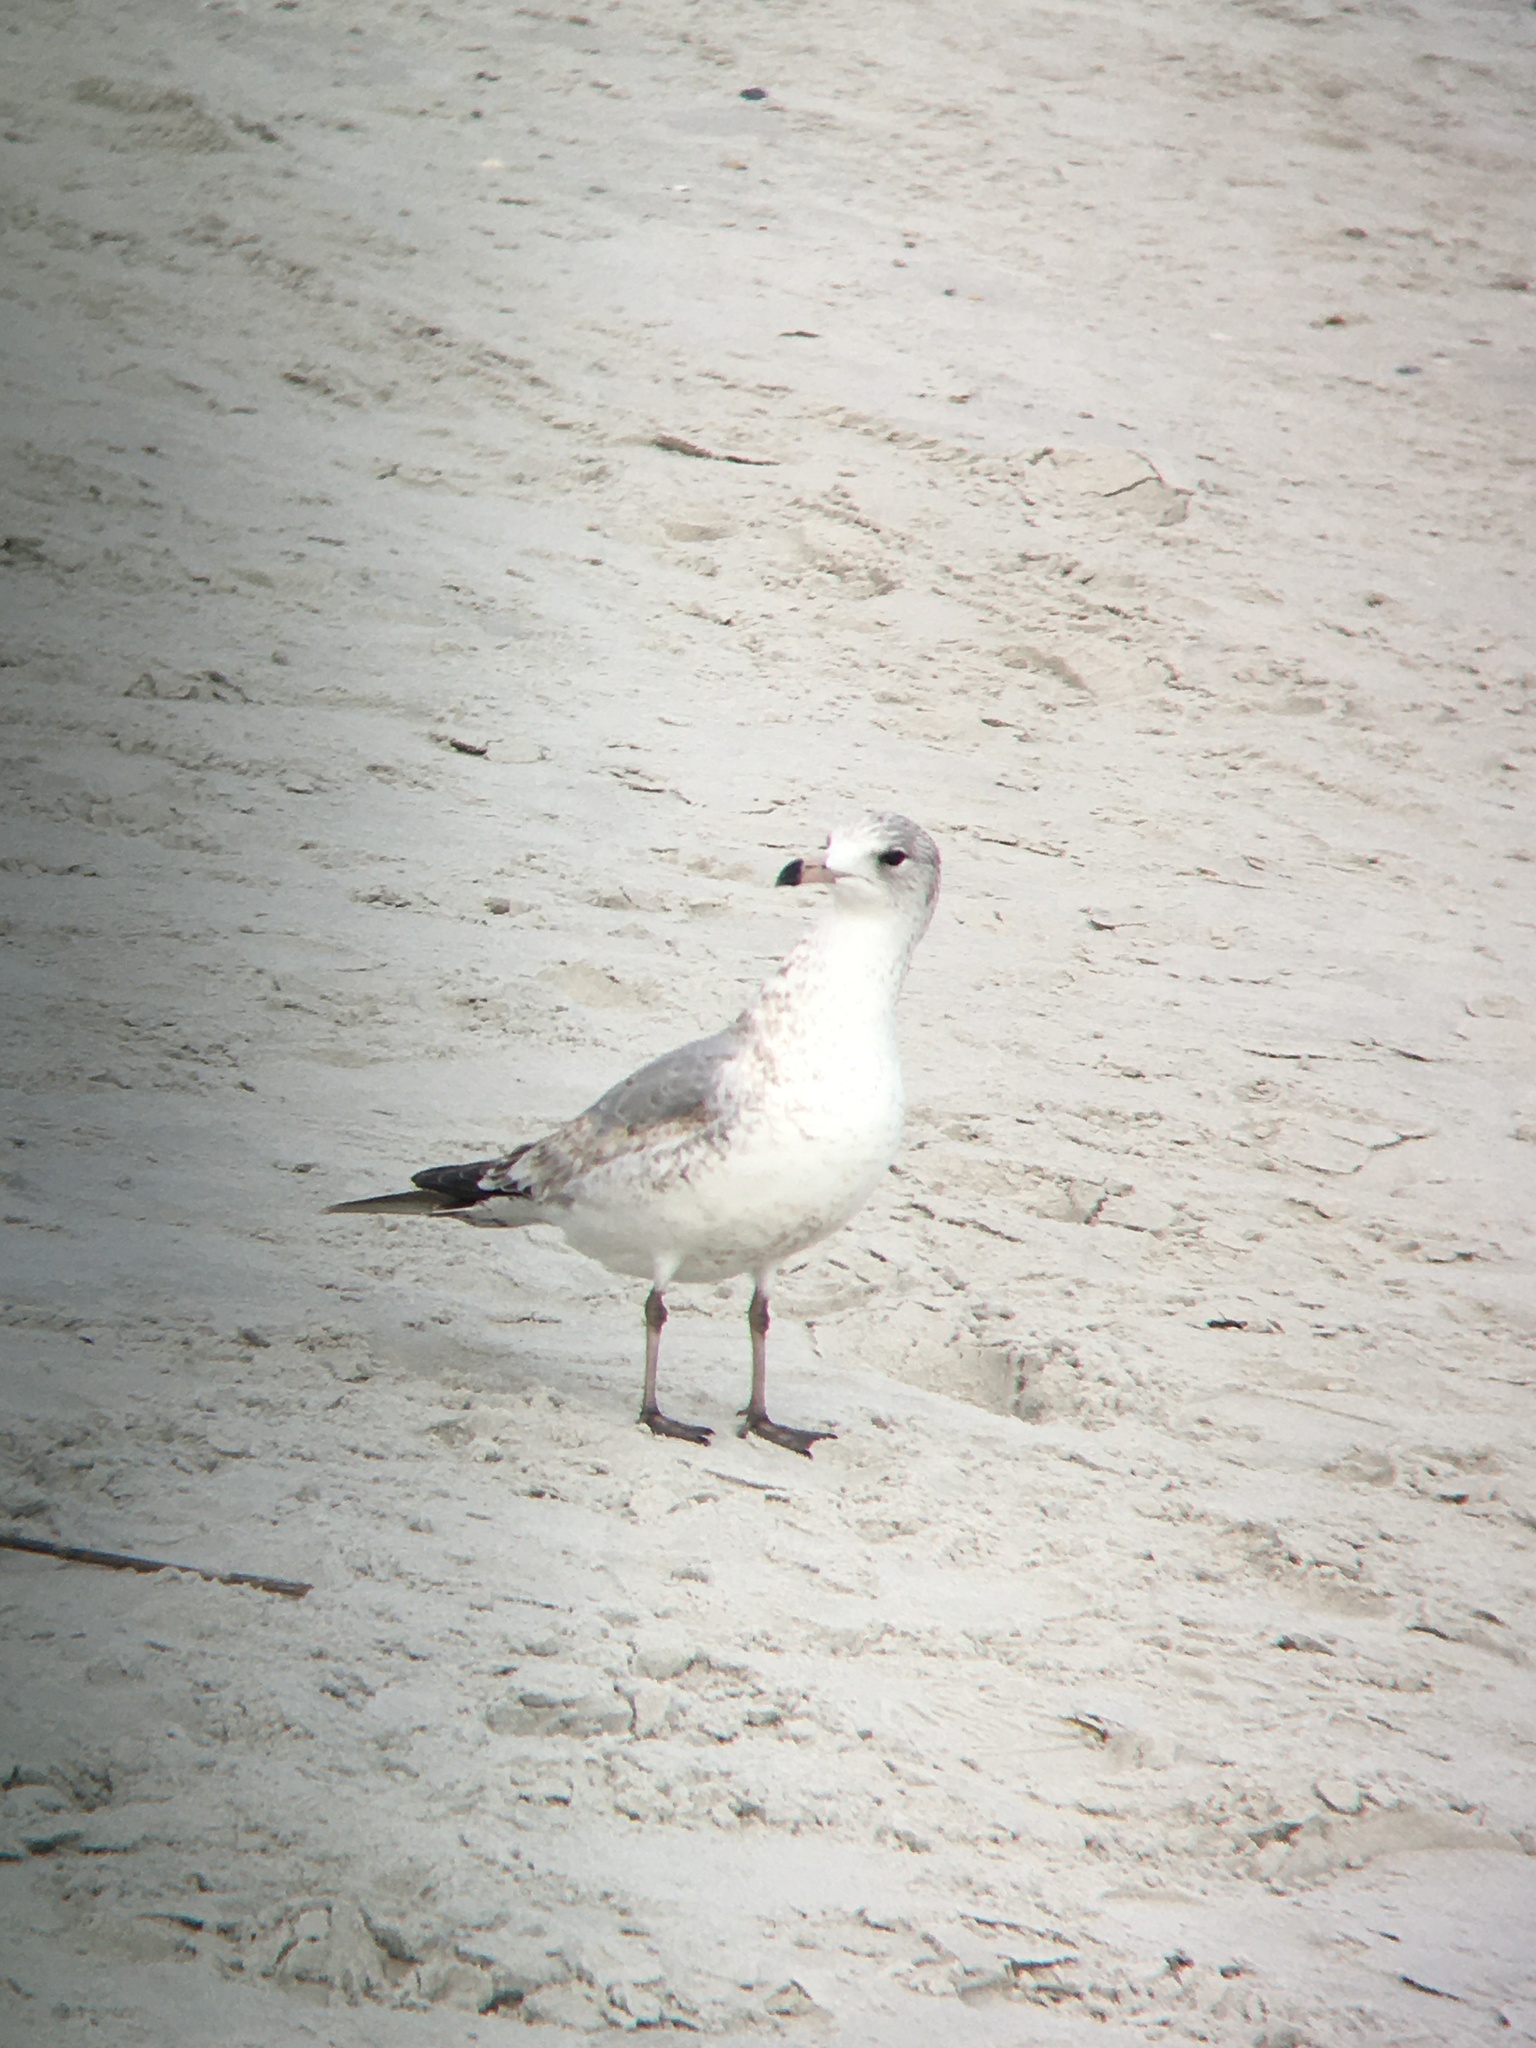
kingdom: Animalia
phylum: Chordata
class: Aves
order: Charadriiformes
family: Laridae
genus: Larus
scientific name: Larus delawarensis
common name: Ring-billed gull
